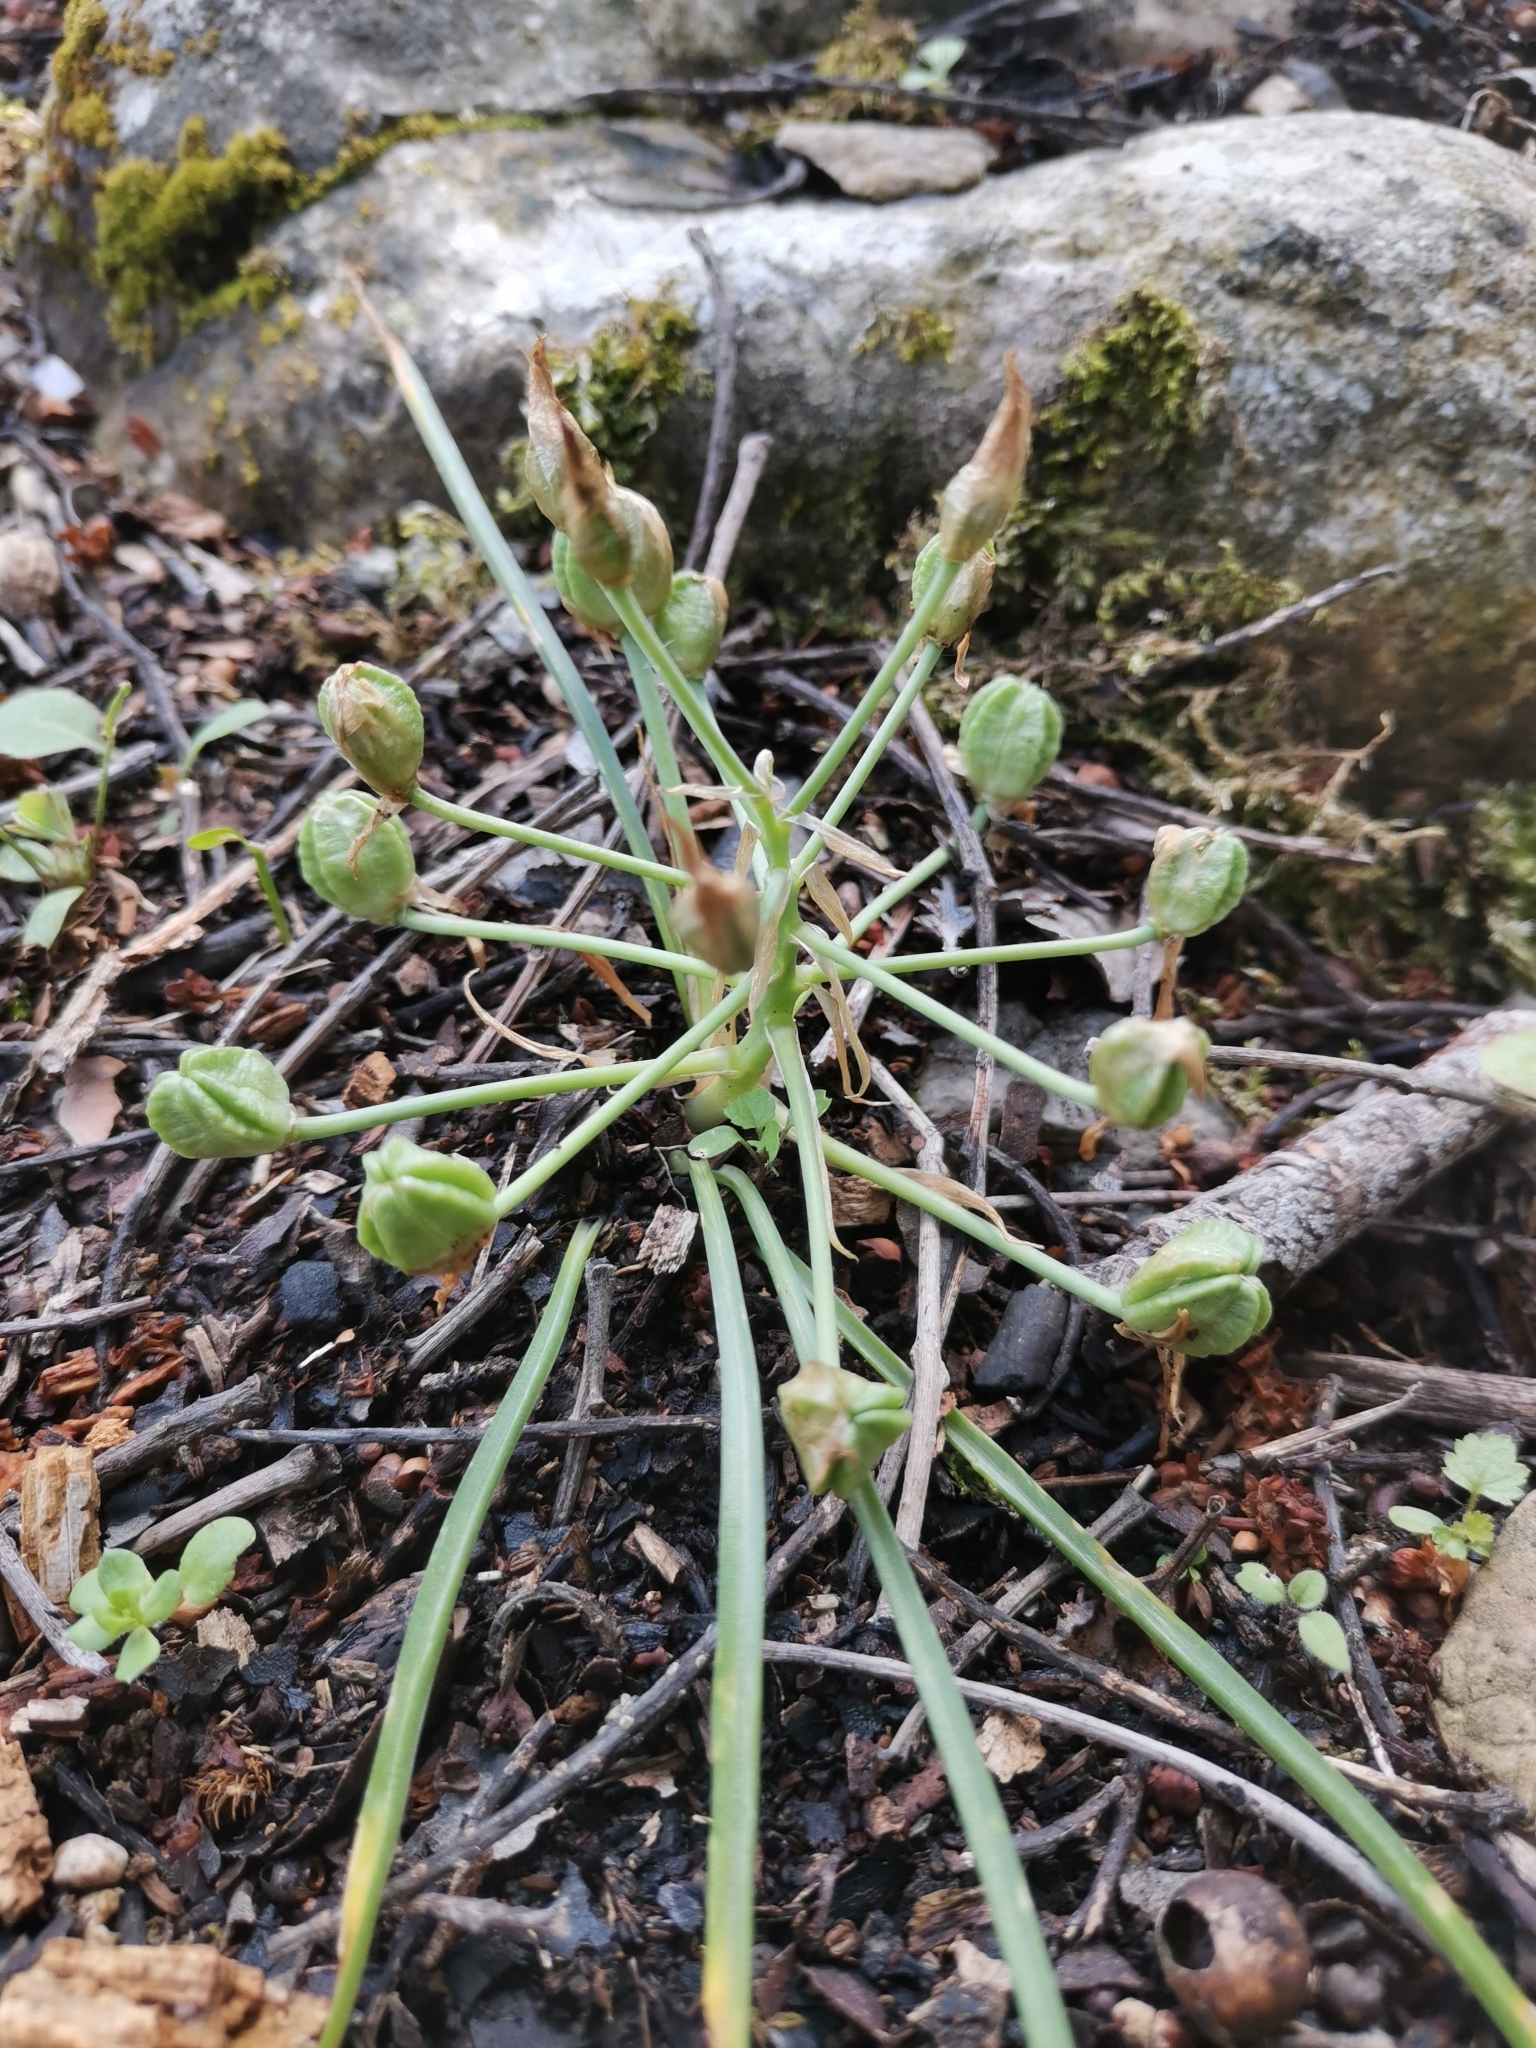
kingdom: Plantae
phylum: Tracheophyta
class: Liliopsida
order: Asparagales
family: Asparagaceae
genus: Ornithogalum
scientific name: Ornithogalum exscapum
